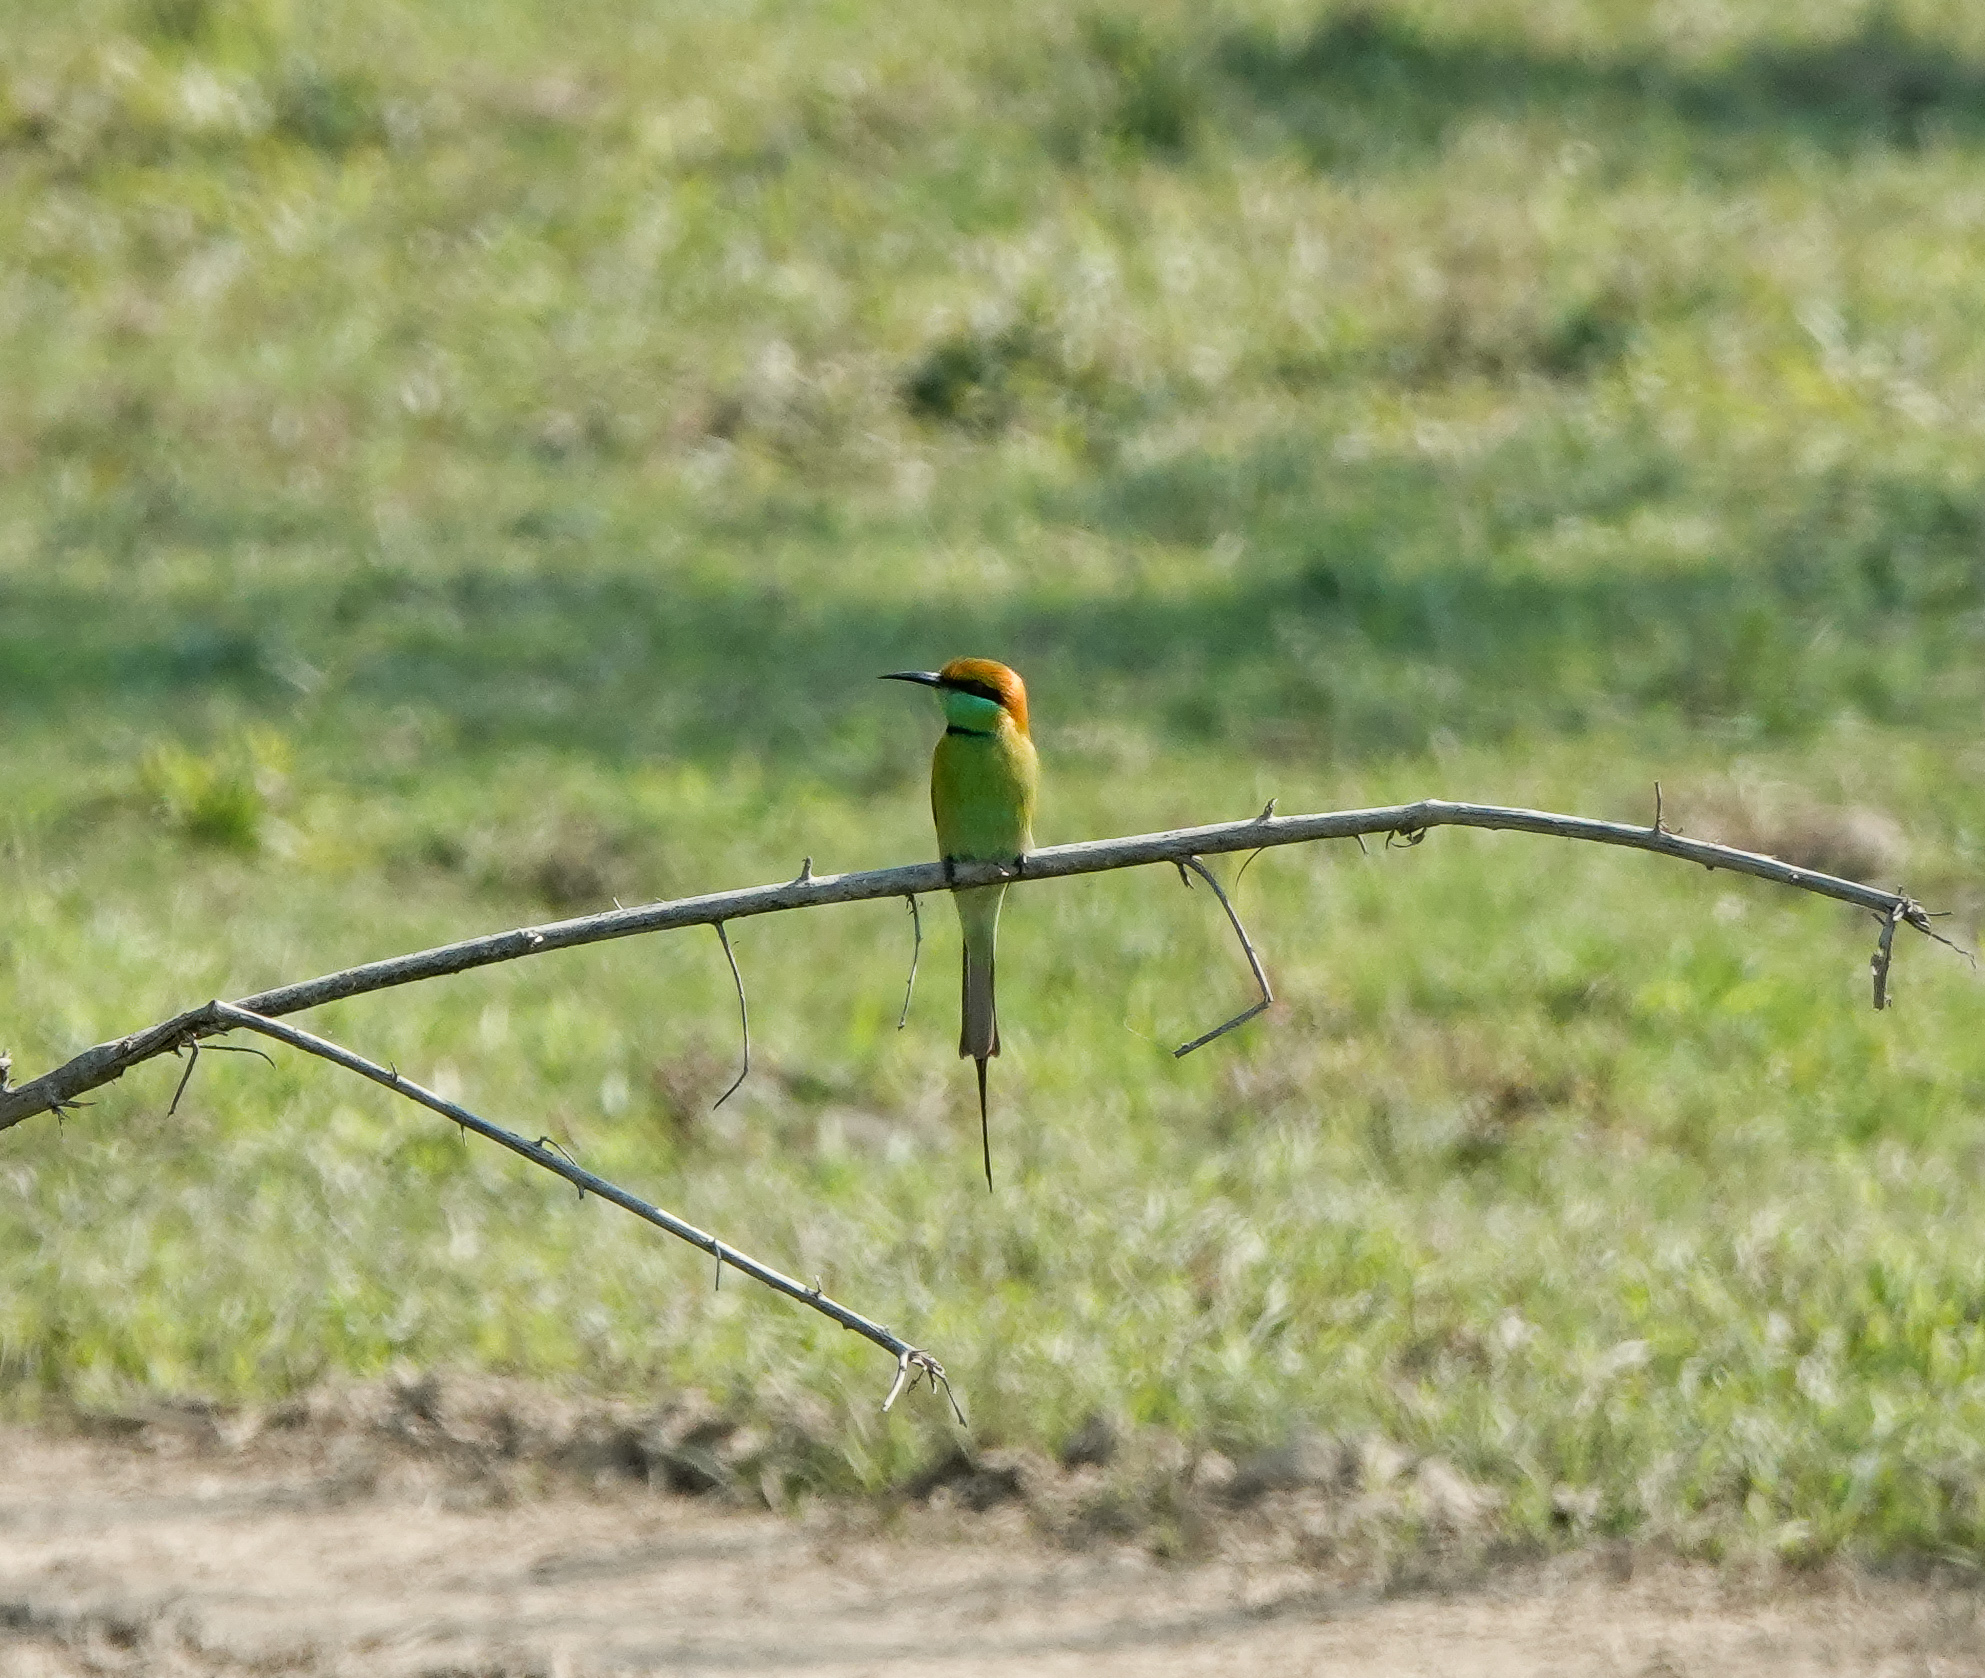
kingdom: Animalia
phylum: Chordata
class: Aves
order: Coraciiformes
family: Meropidae
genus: Merops
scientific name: Merops orientalis
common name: Green bee-eater
